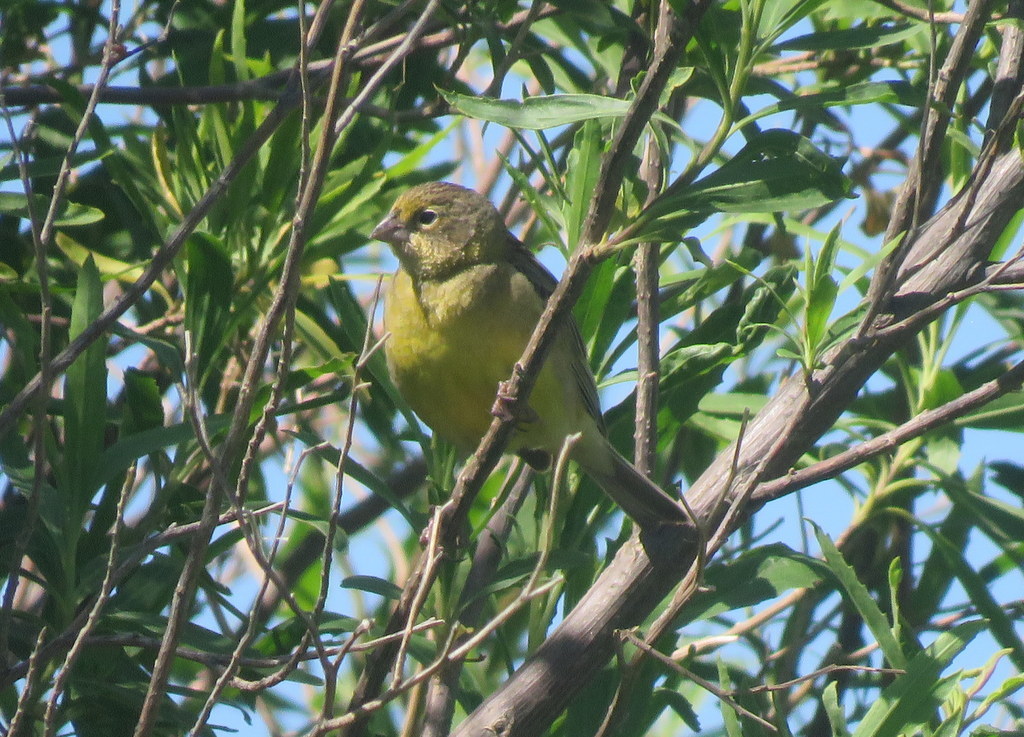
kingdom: Animalia
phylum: Chordata
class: Aves
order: Passeriformes
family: Thraupidae
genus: Sicalis
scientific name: Sicalis luteola
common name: Grassland yellow-finch
